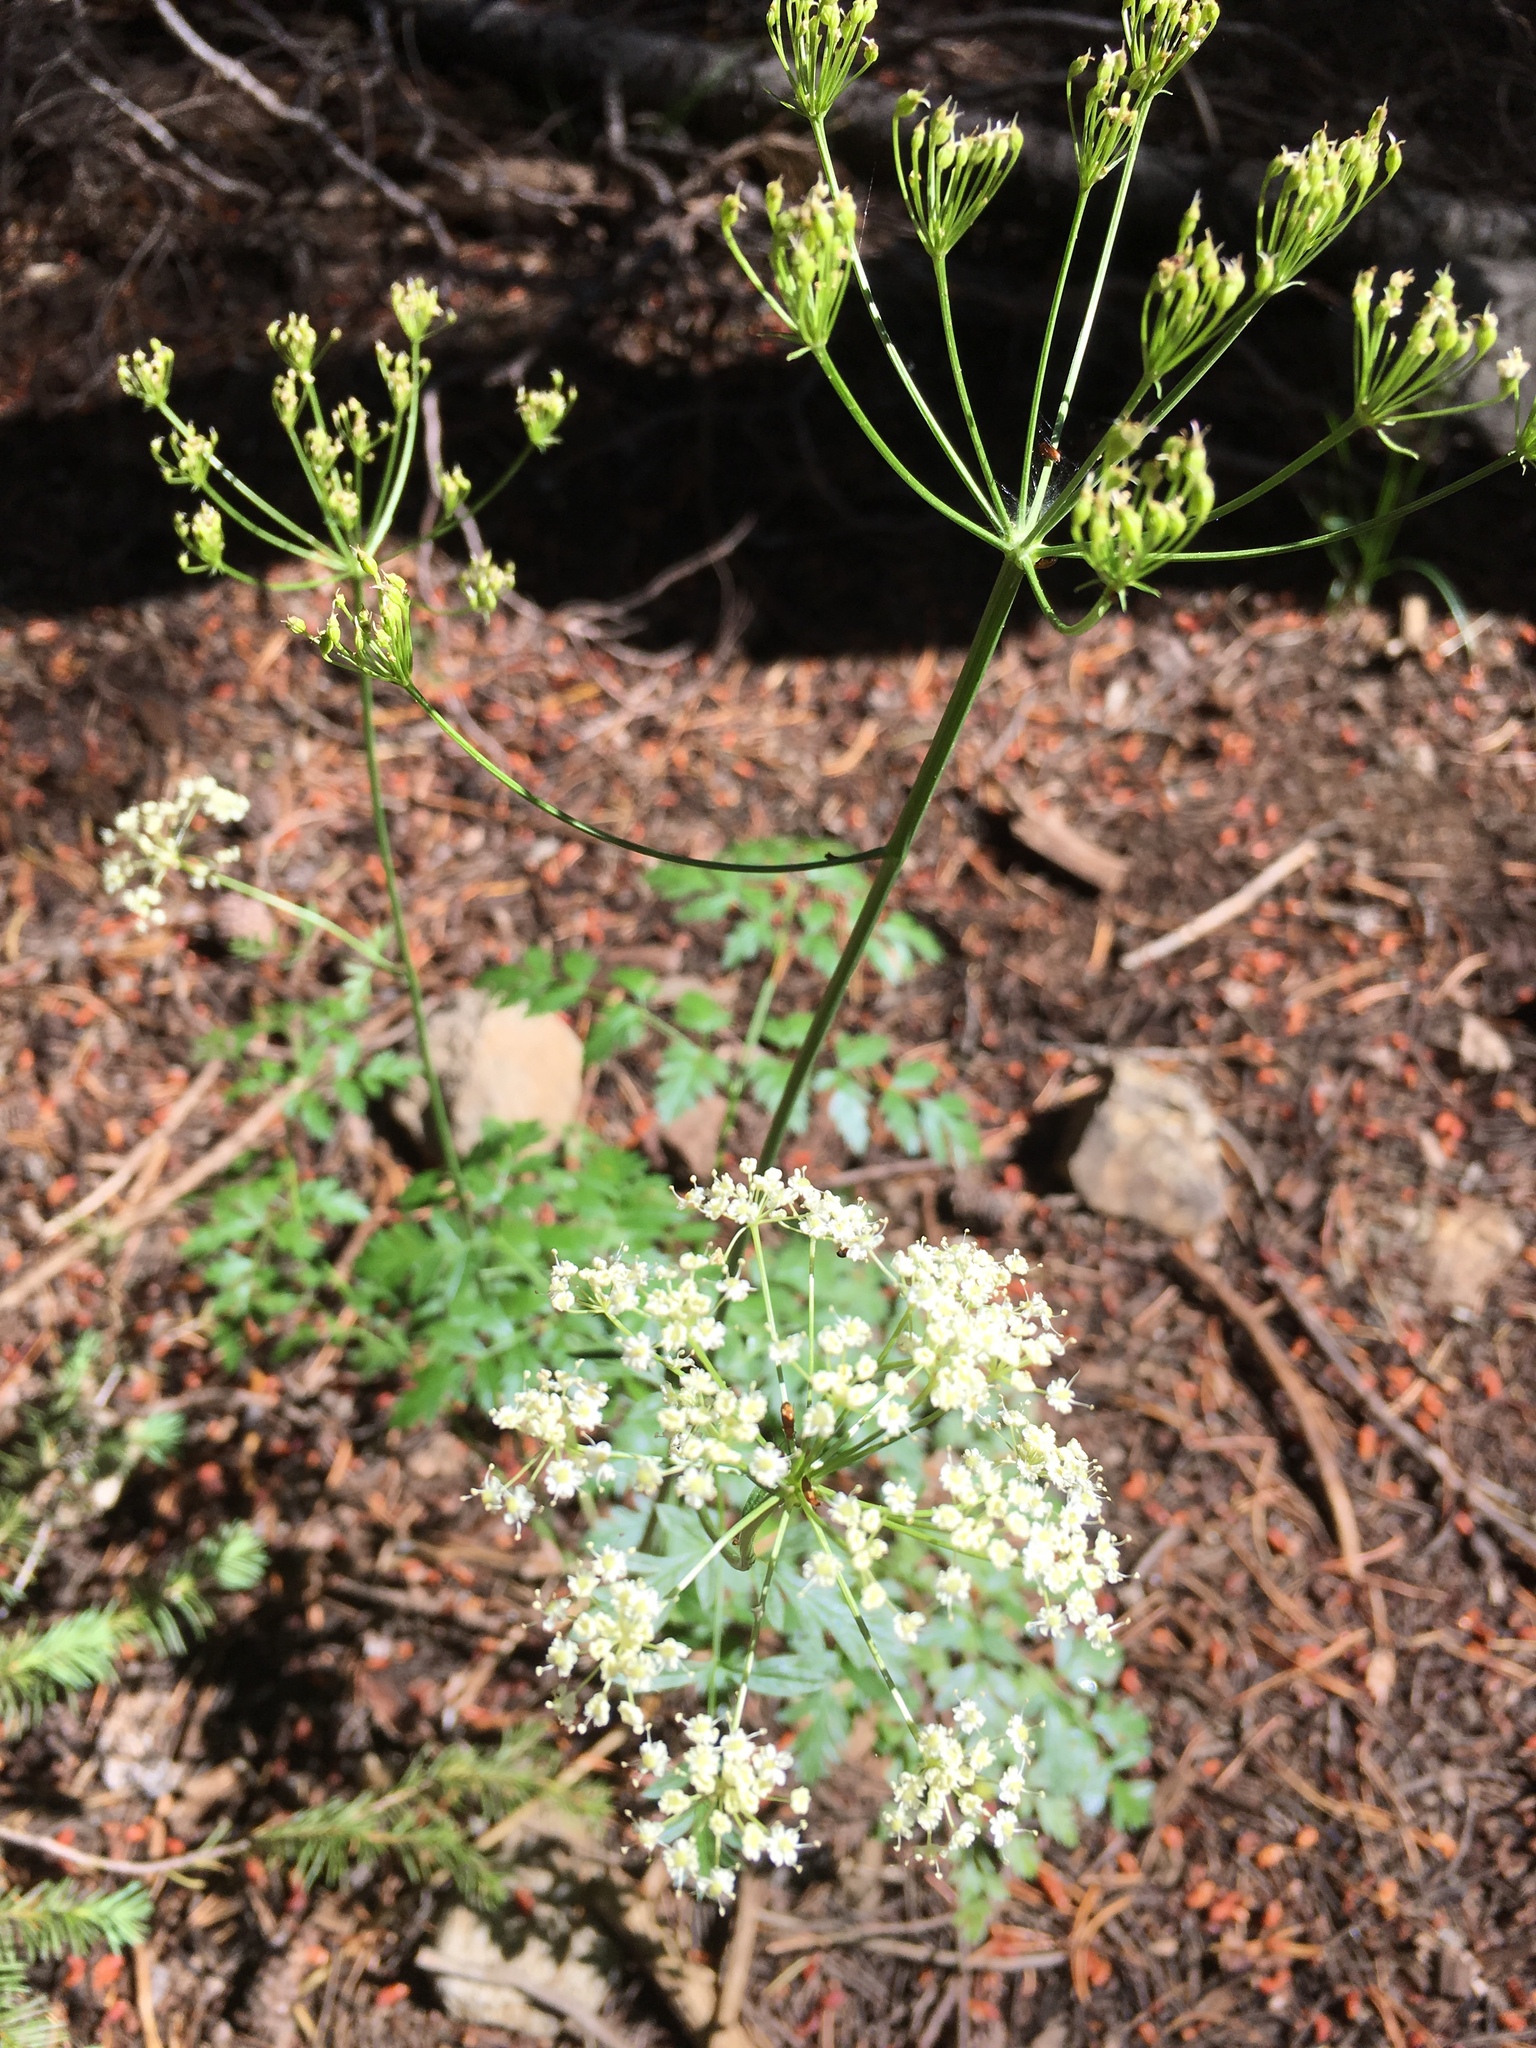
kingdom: Plantae
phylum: Tracheophyta
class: Magnoliopsida
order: Apiales
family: Apiaceae
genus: Ligusticum
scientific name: Ligusticum grayi
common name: Gray's licorice-root
